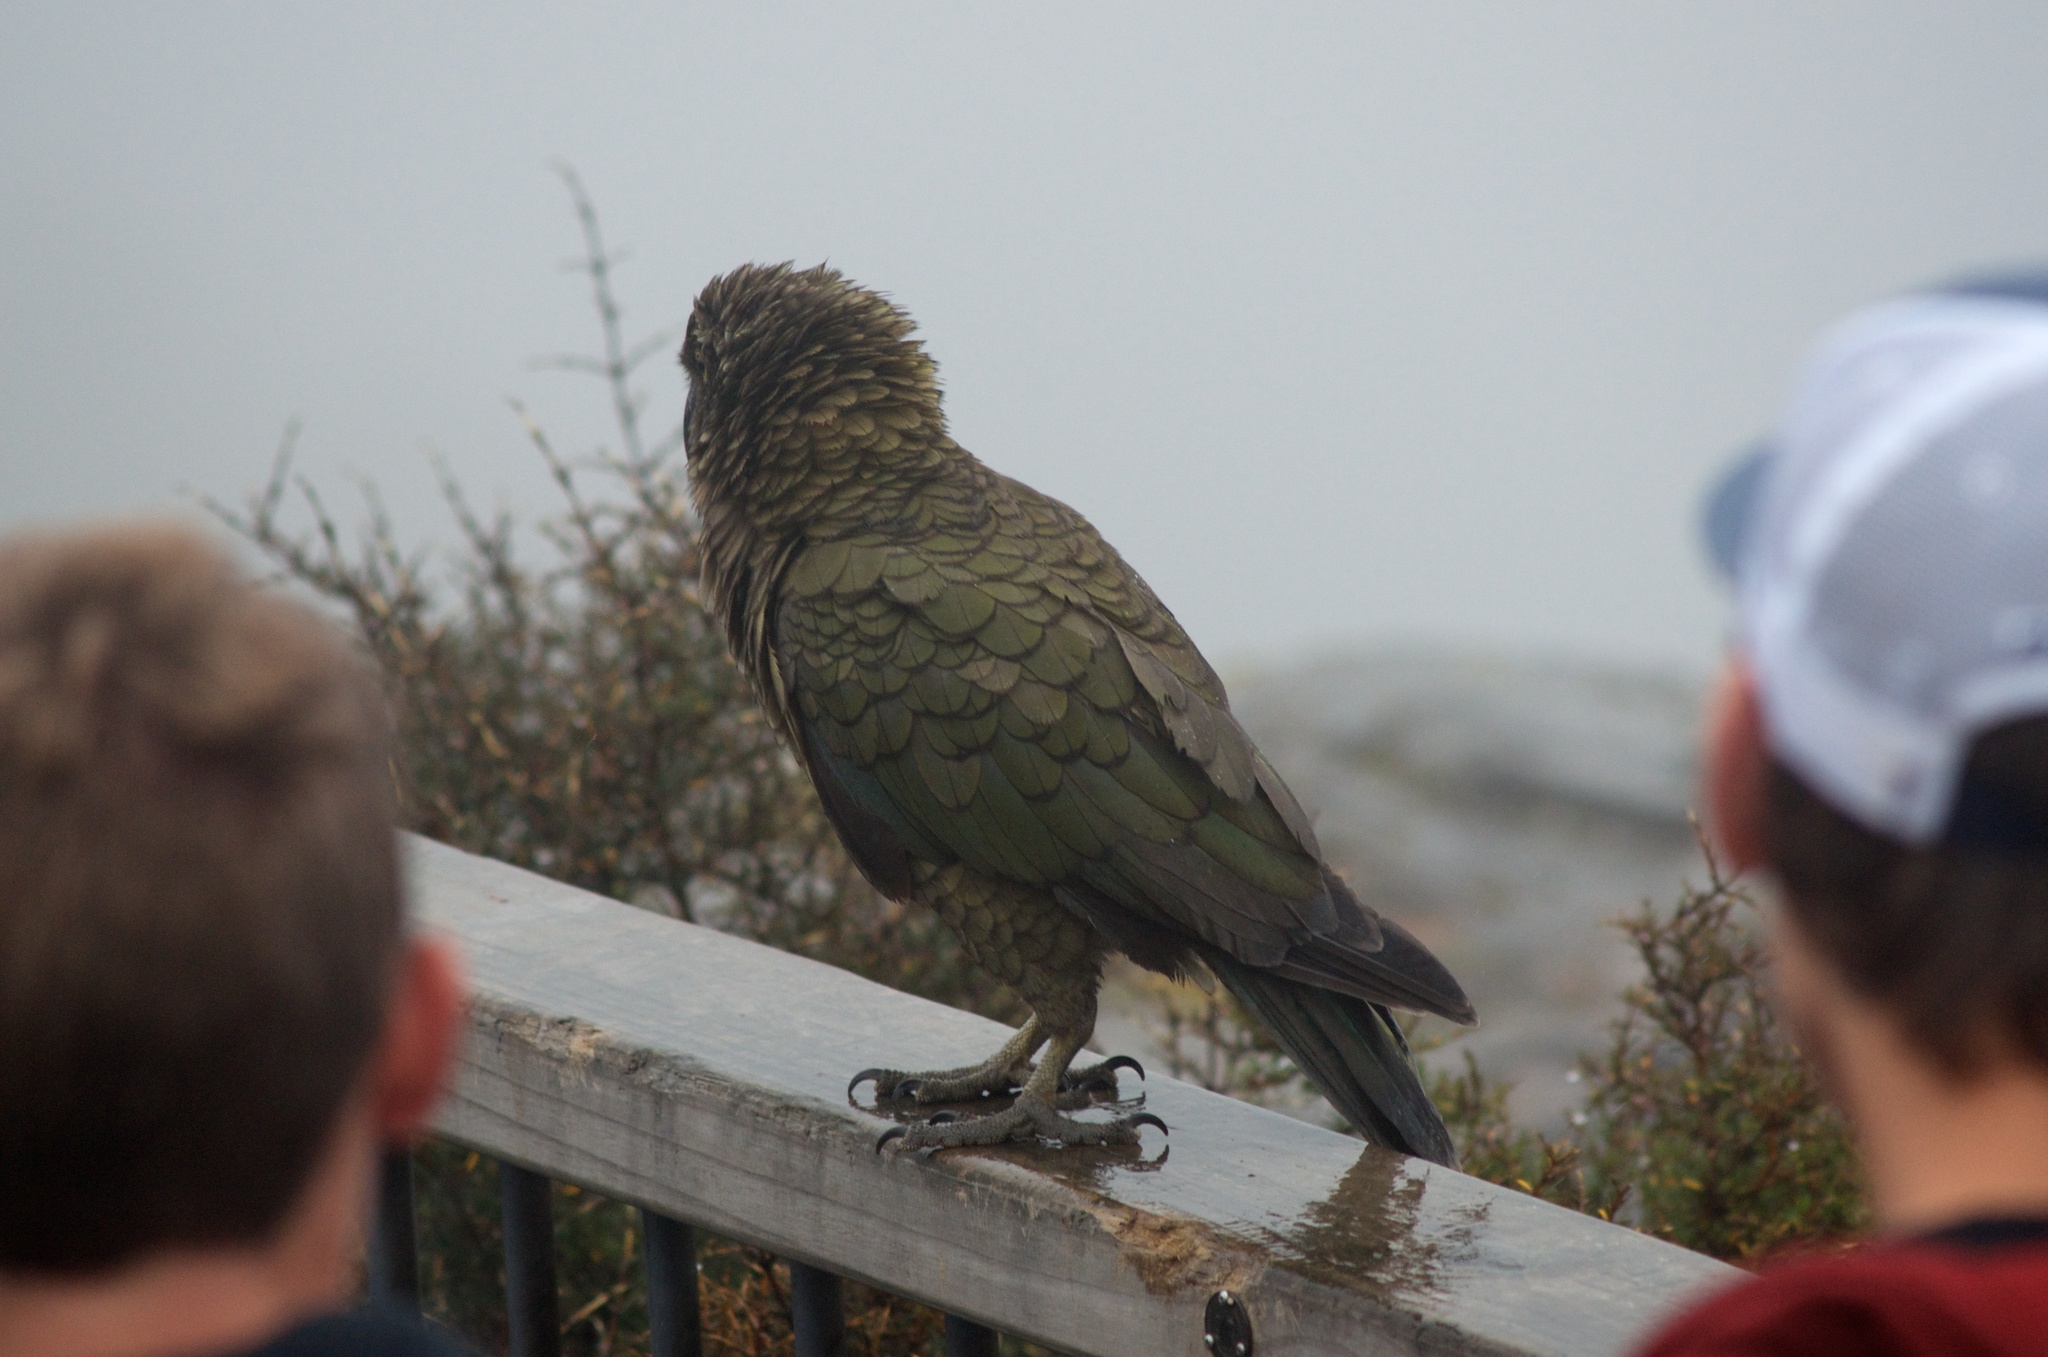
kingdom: Animalia
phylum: Chordata
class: Aves
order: Psittaciformes
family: Psittacidae
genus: Nestor
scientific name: Nestor notabilis
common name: Kea
